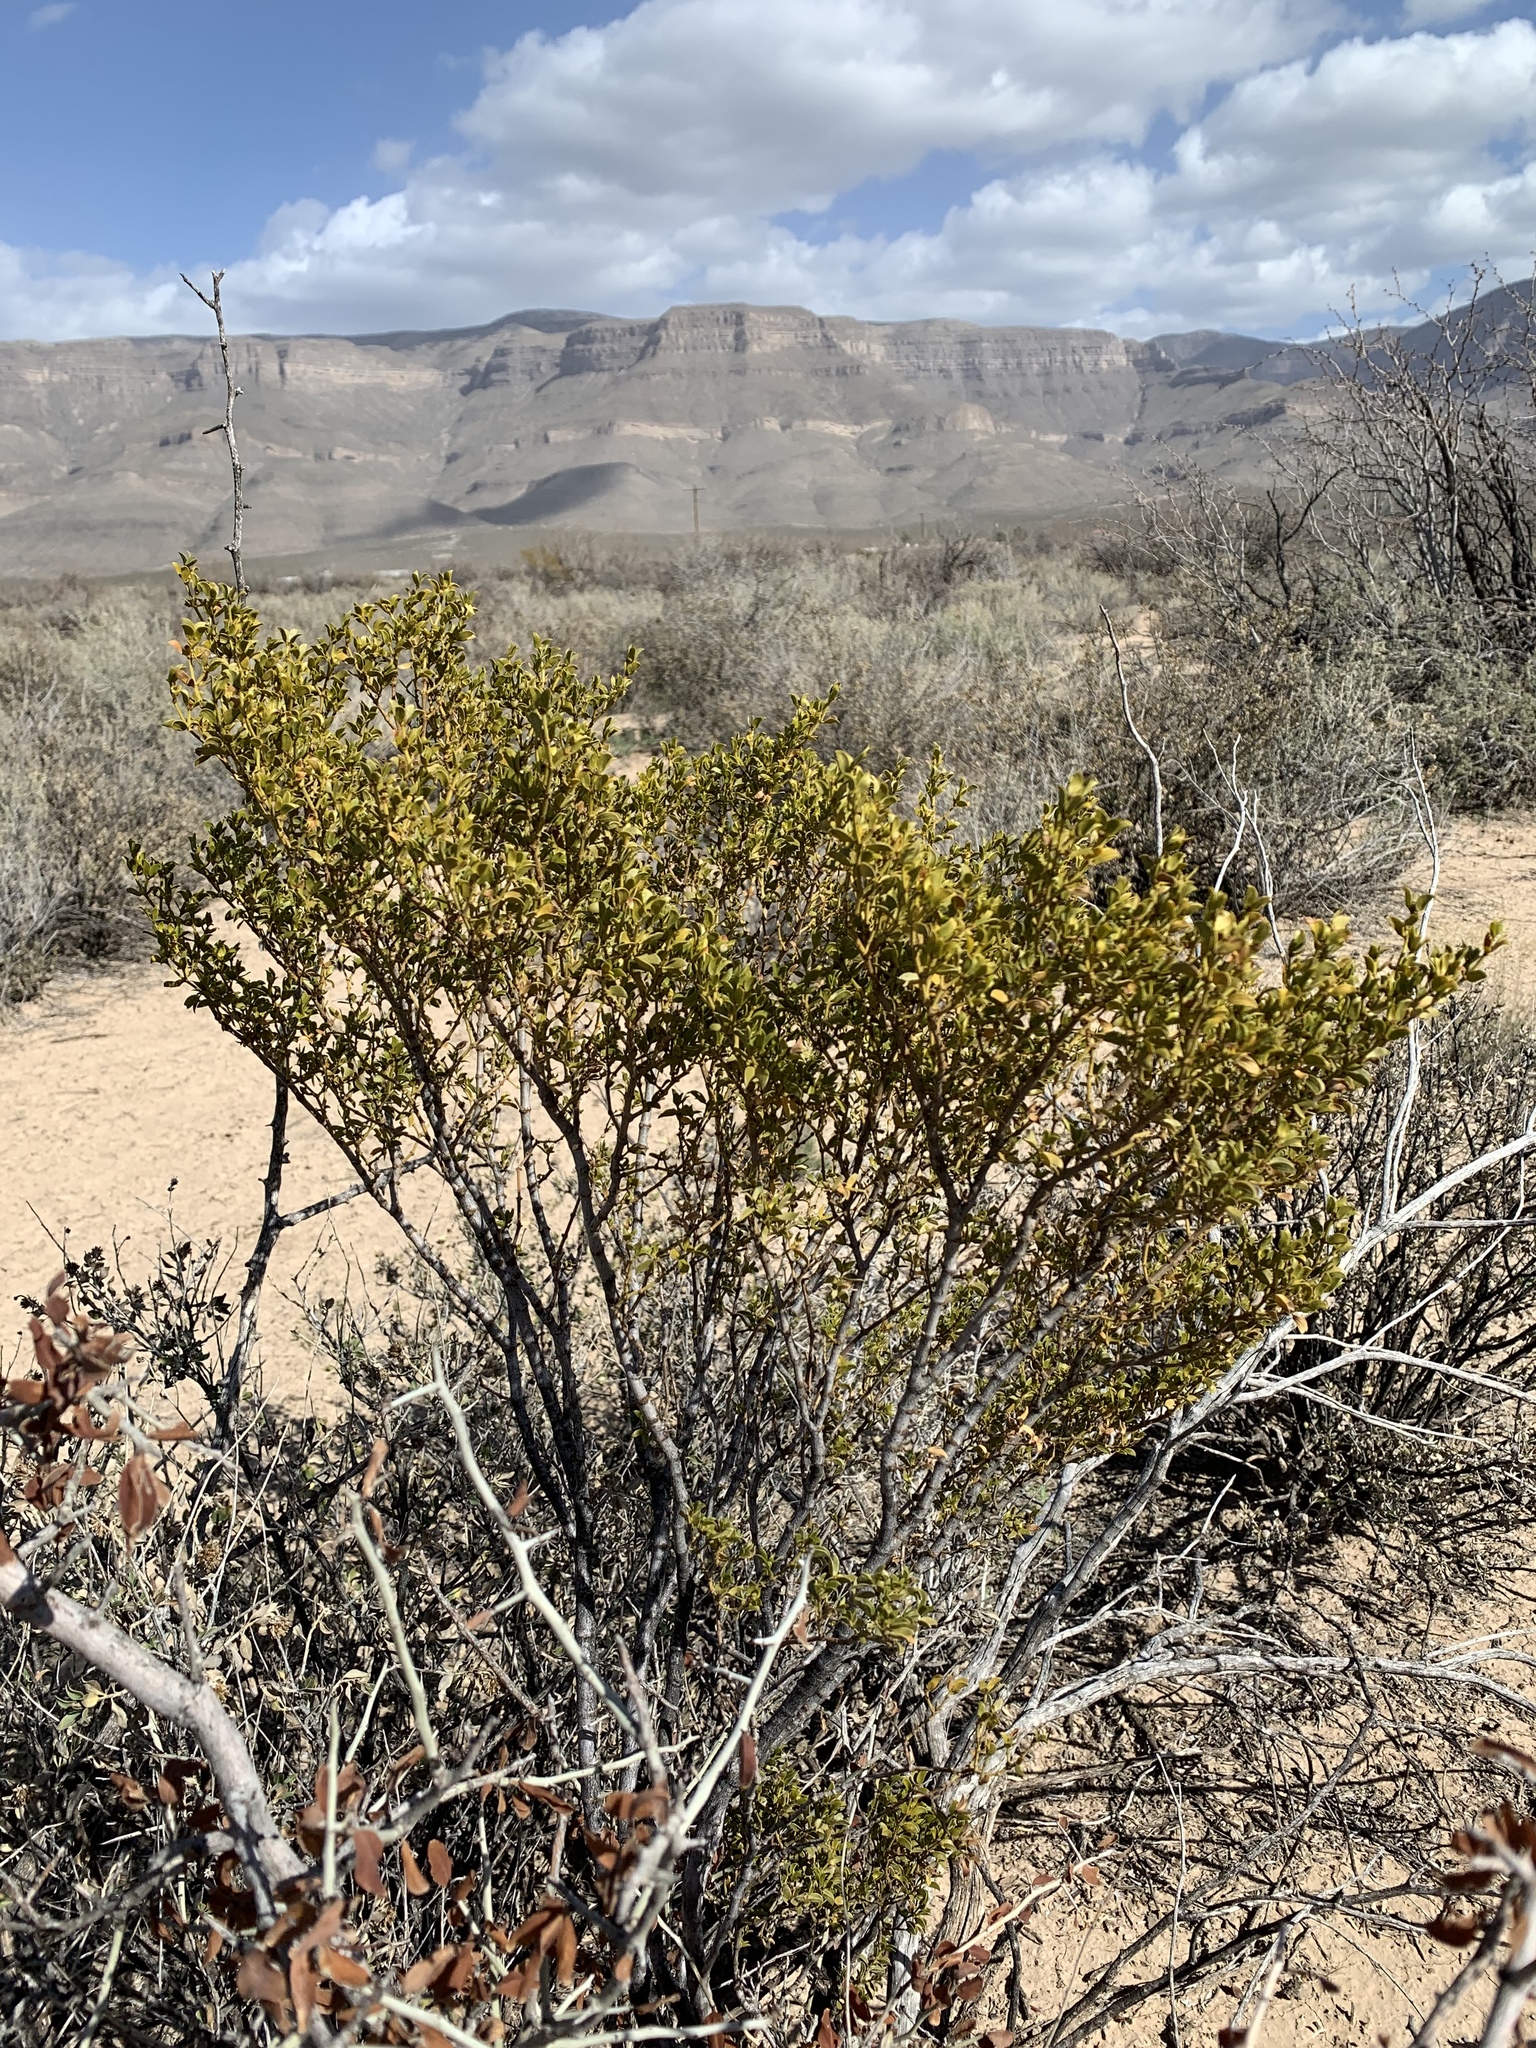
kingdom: Plantae
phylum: Tracheophyta
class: Magnoliopsida
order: Zygophyllales
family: Zygophyllaceae
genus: Larrea
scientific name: Larrea tridentata
